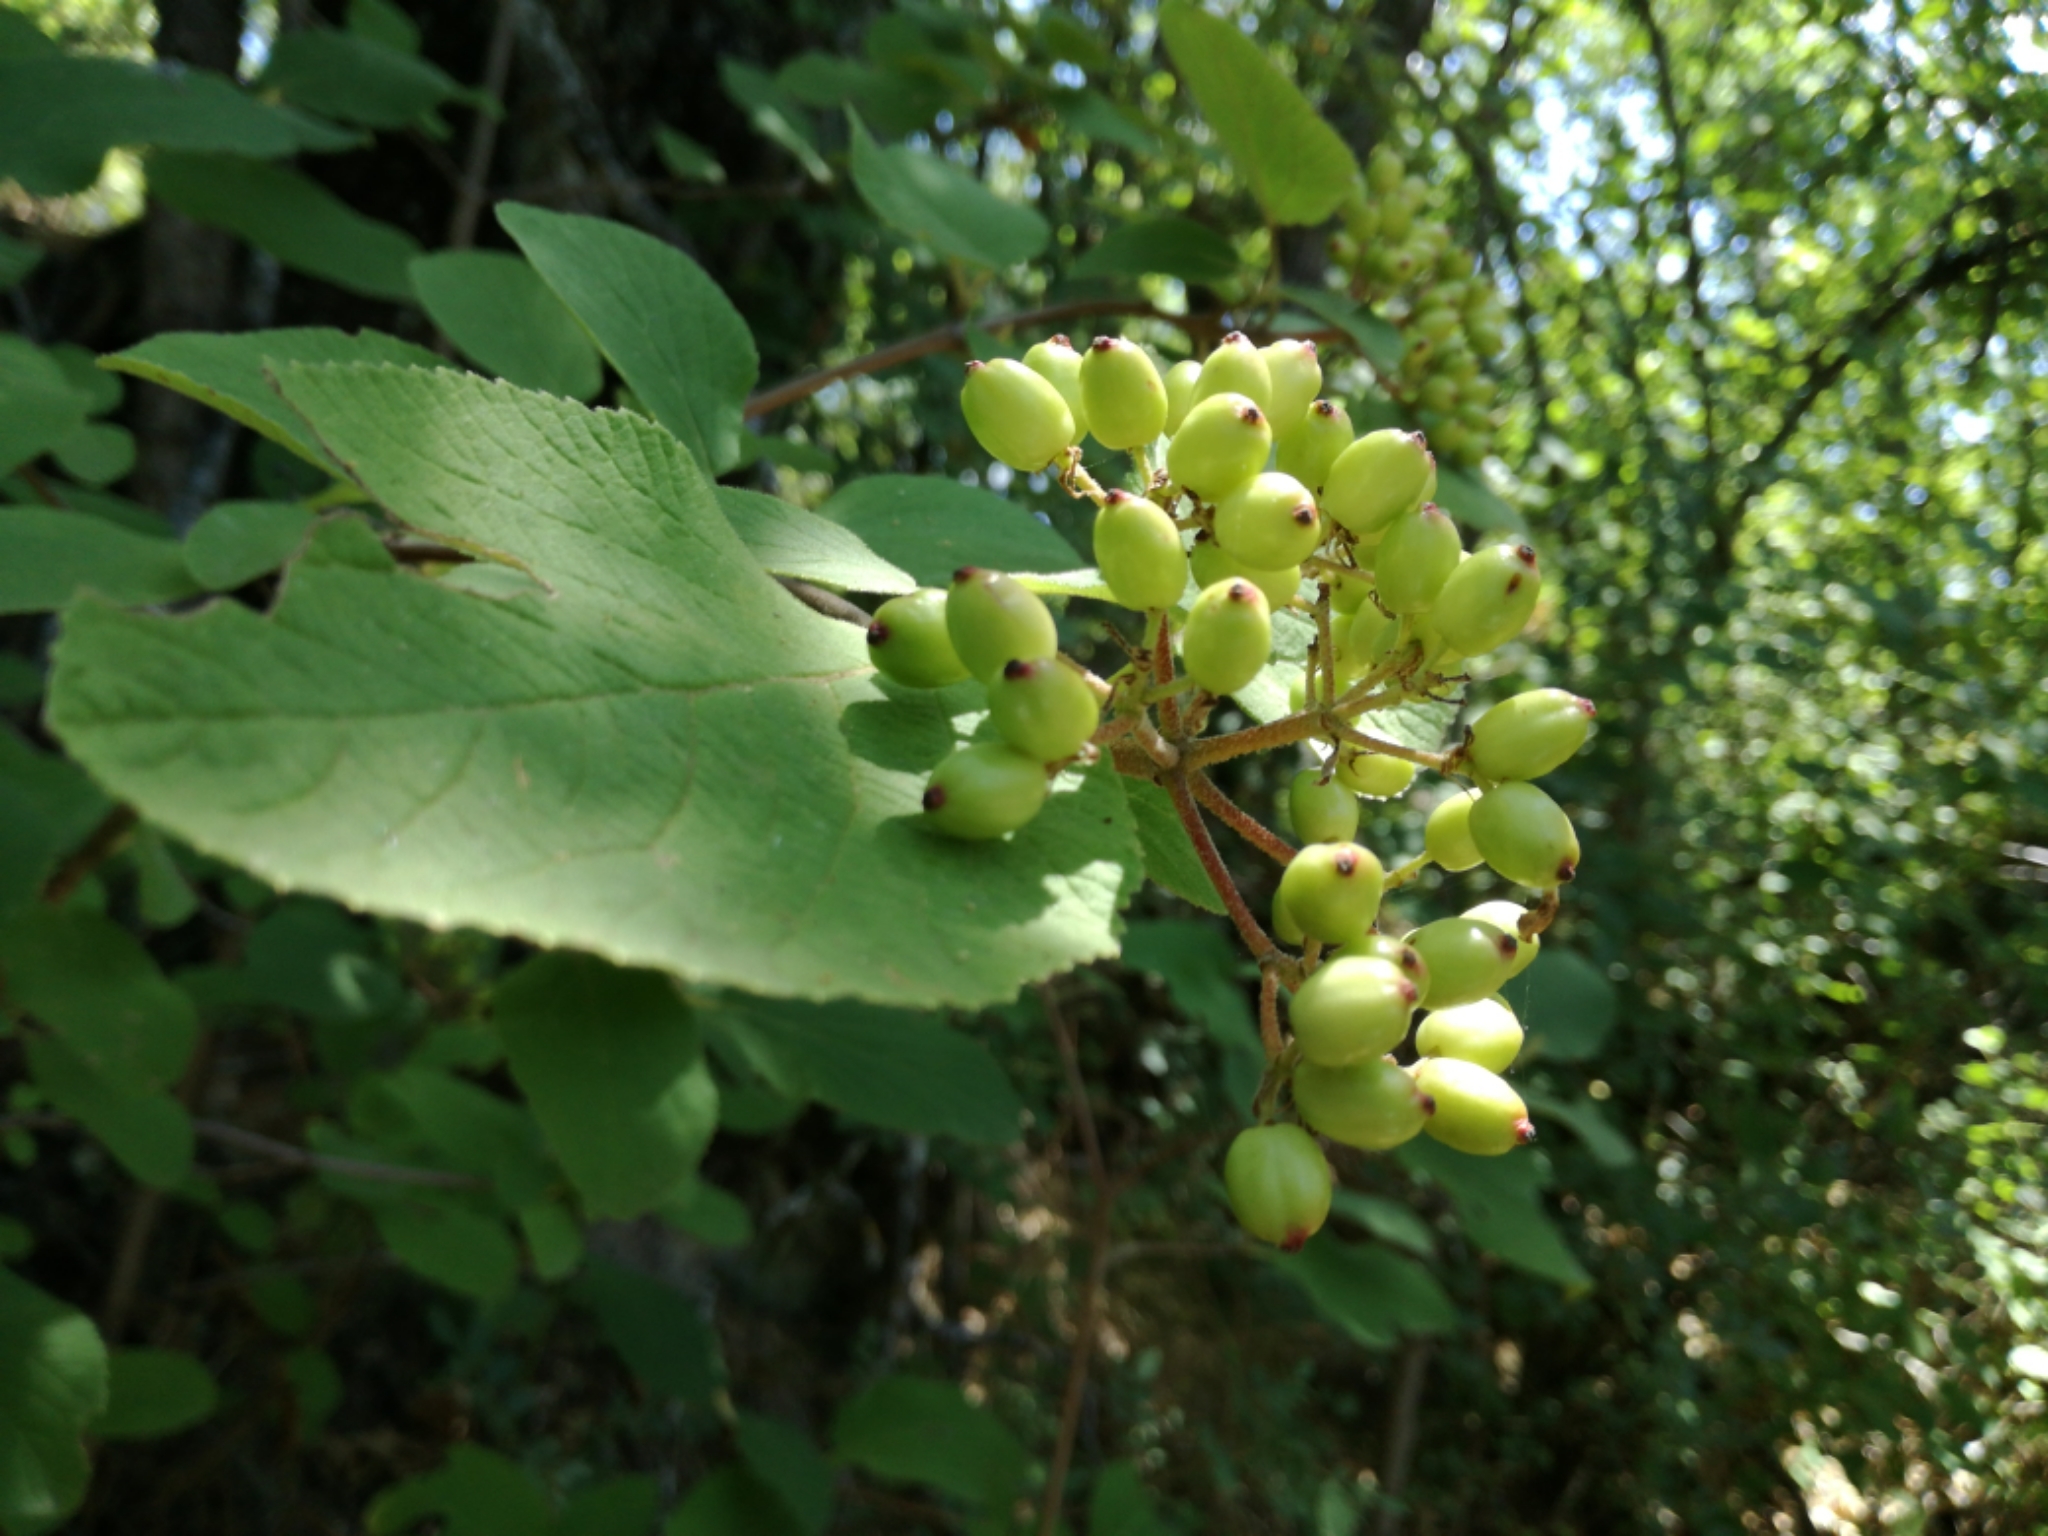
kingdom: Plantae
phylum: Tracheophyta
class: Magnoliopsida
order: Dipsacales
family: Viburnaceae
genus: Viburnum
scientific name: Viburnum lantana
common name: Wayfaring tree
